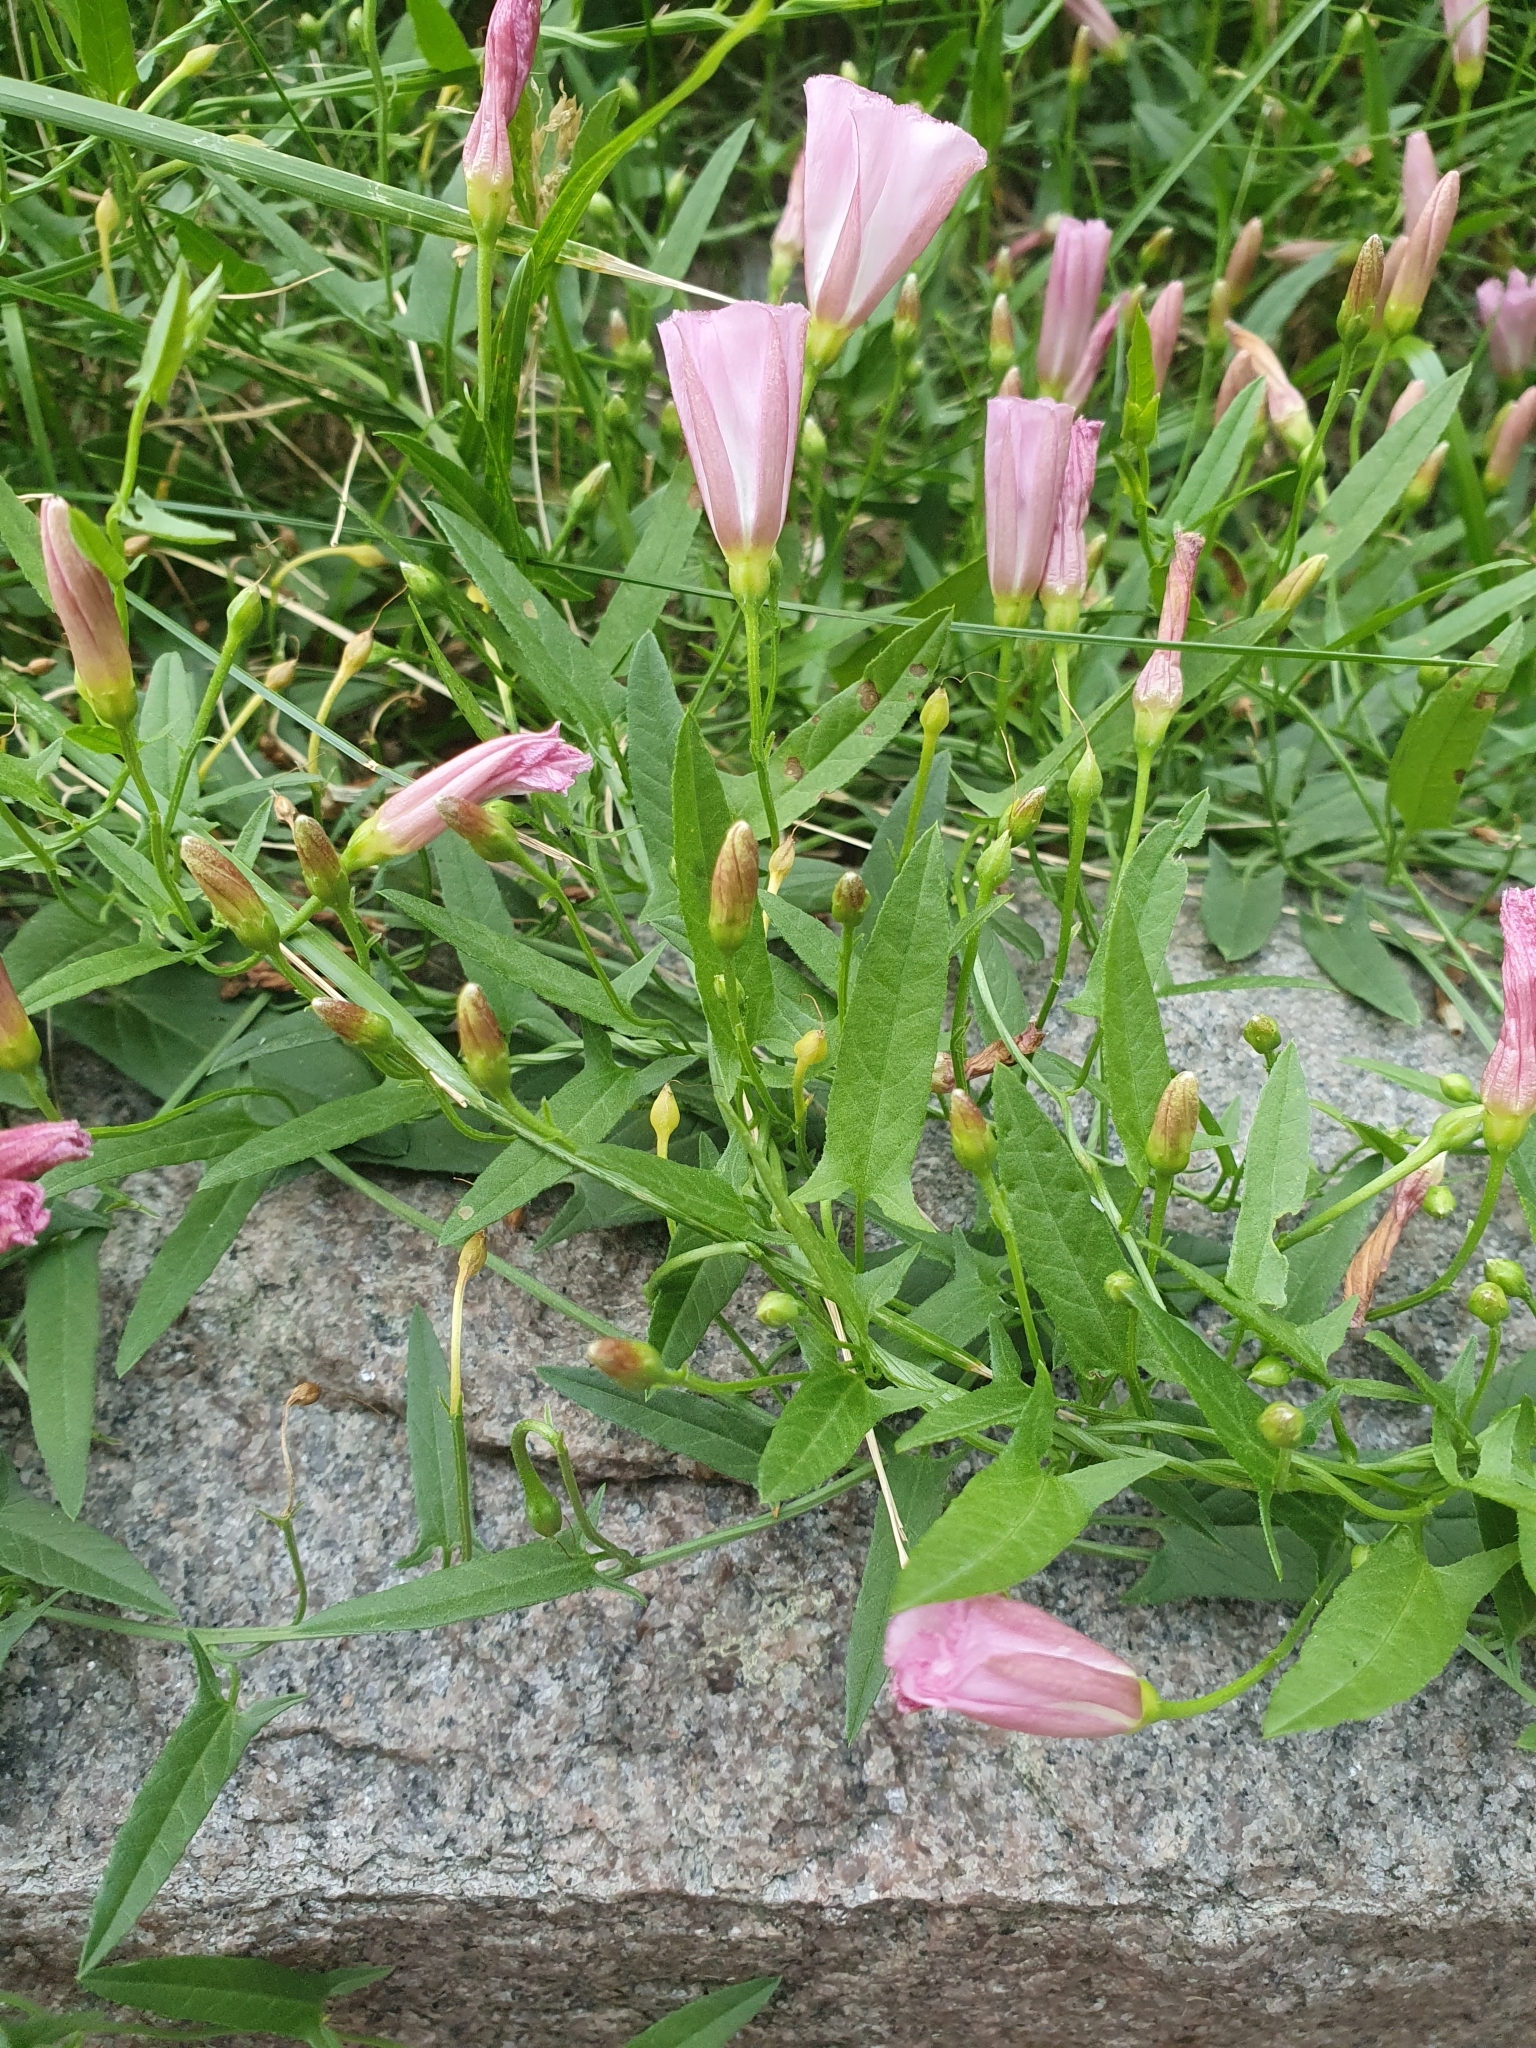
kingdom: Plantae
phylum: Tracheophyta
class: Magnoliopsida
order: Solanales
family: Convolvulaceae
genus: Convolvulus
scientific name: Convolvulus arvensis
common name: Field bindweed
